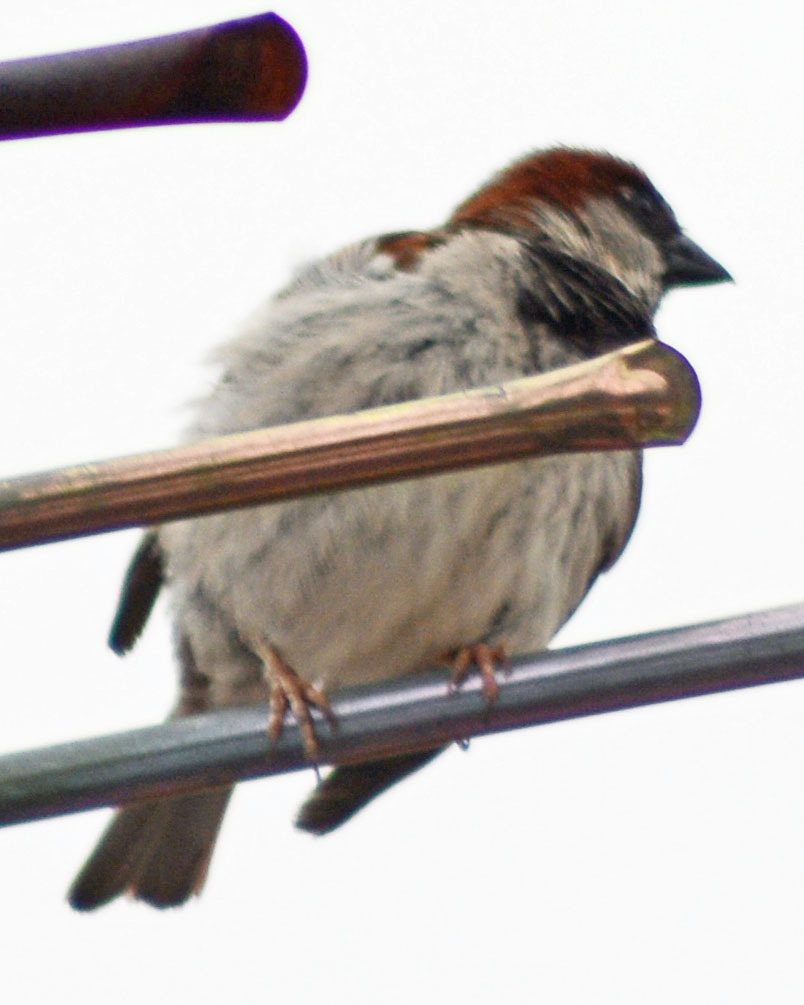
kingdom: Animalia
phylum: Chordata
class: Aves
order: Passeriformes
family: Passeridae
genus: Passer
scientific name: Passer domesticus
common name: House sparrow
